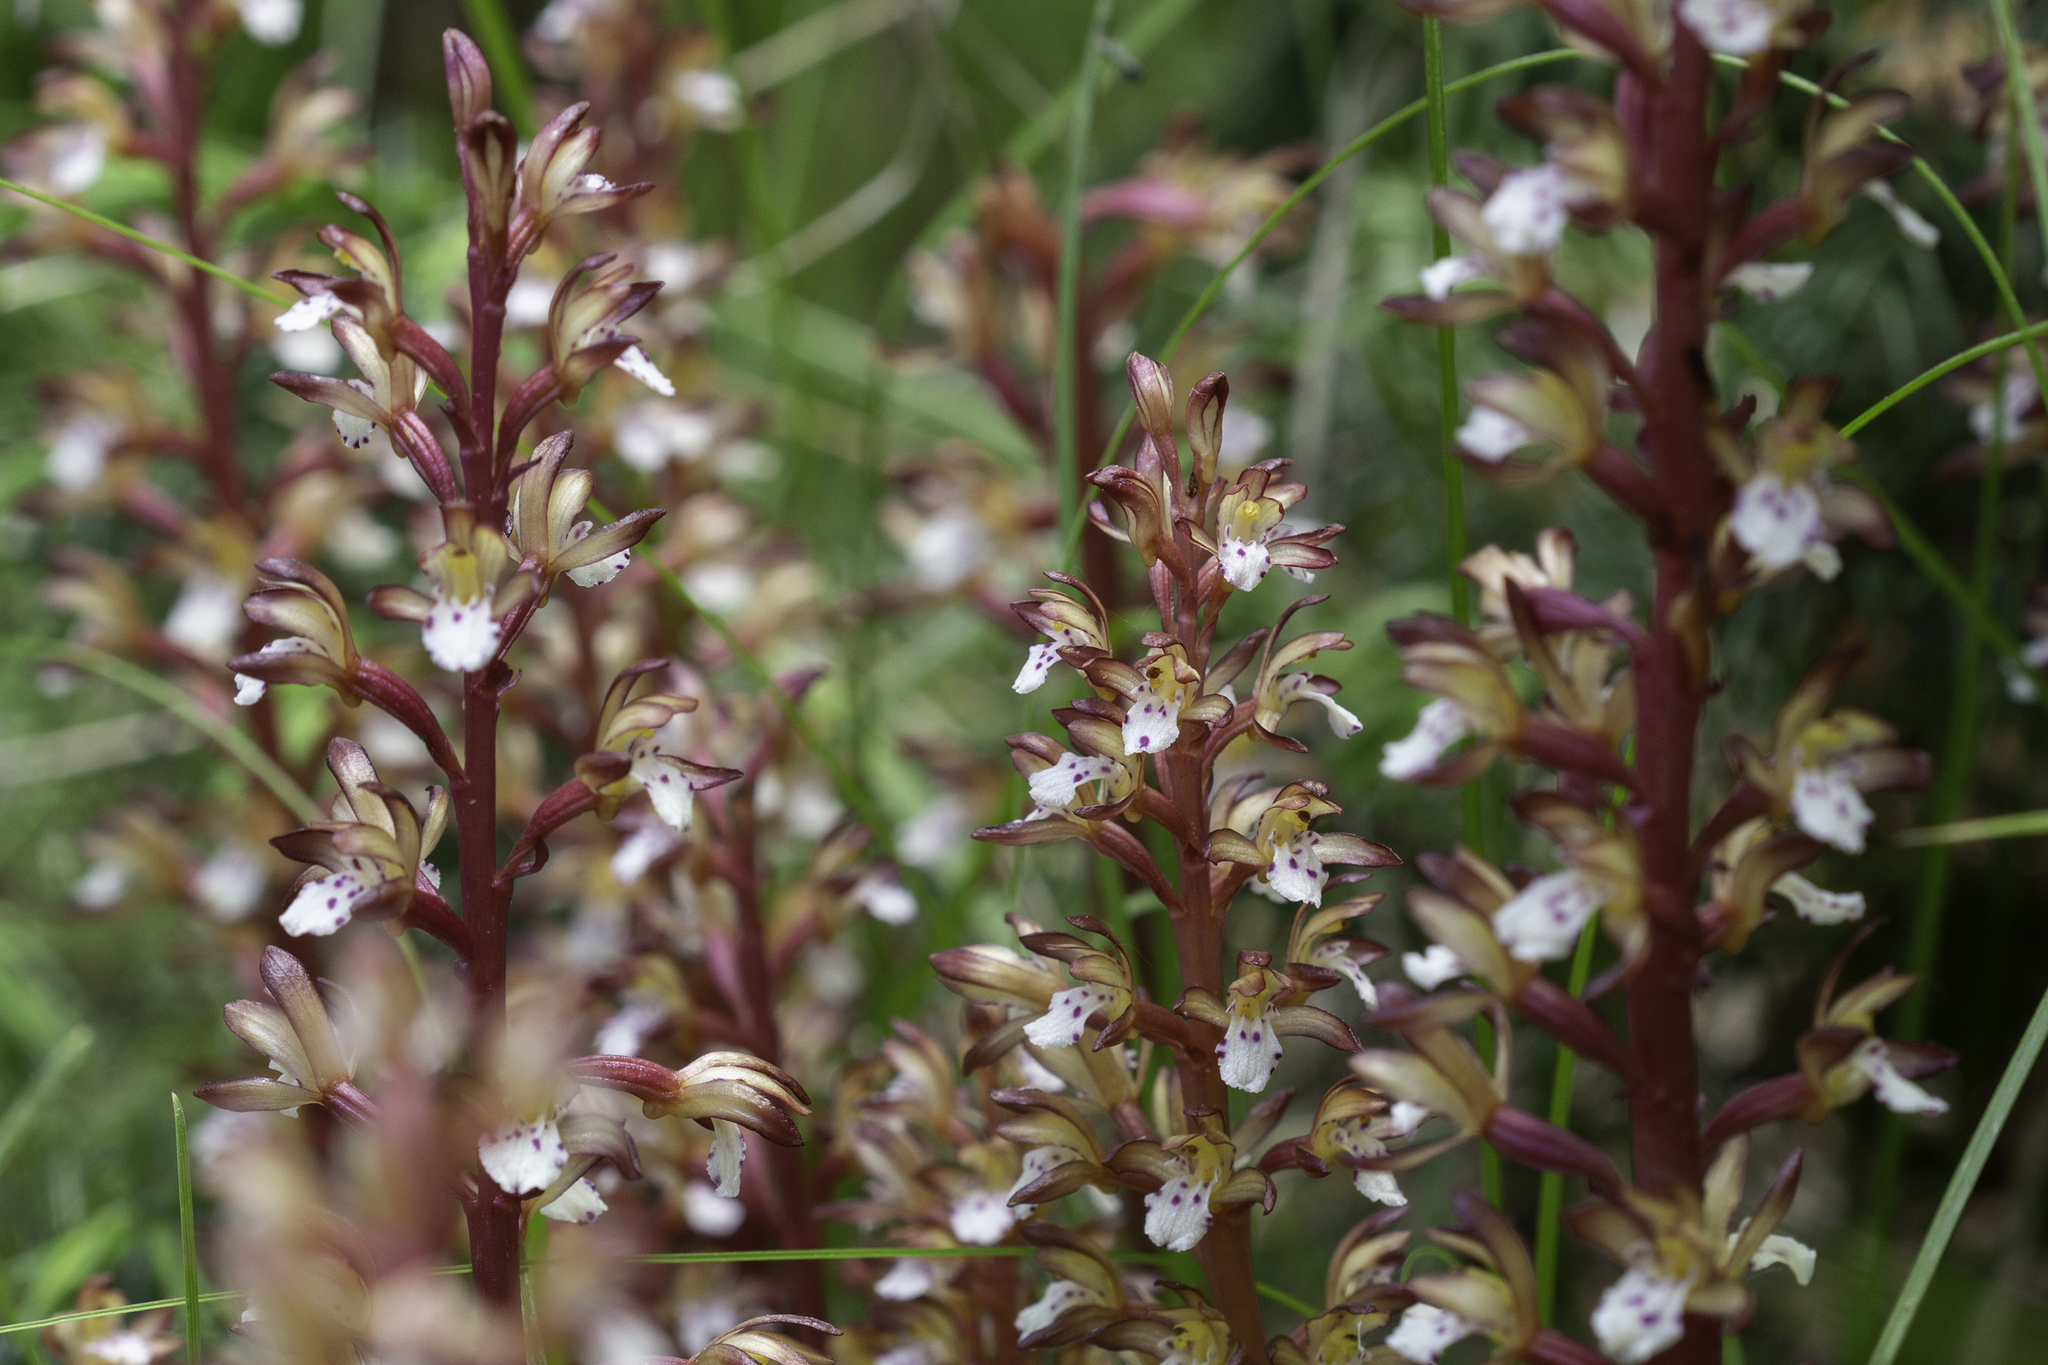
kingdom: Plantae
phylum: Tracheophyta
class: Liliopsida
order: Asparagales
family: Orchidaceae
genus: Corallorhiza
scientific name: Corallorhiza maculata
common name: Spotted coralroot
